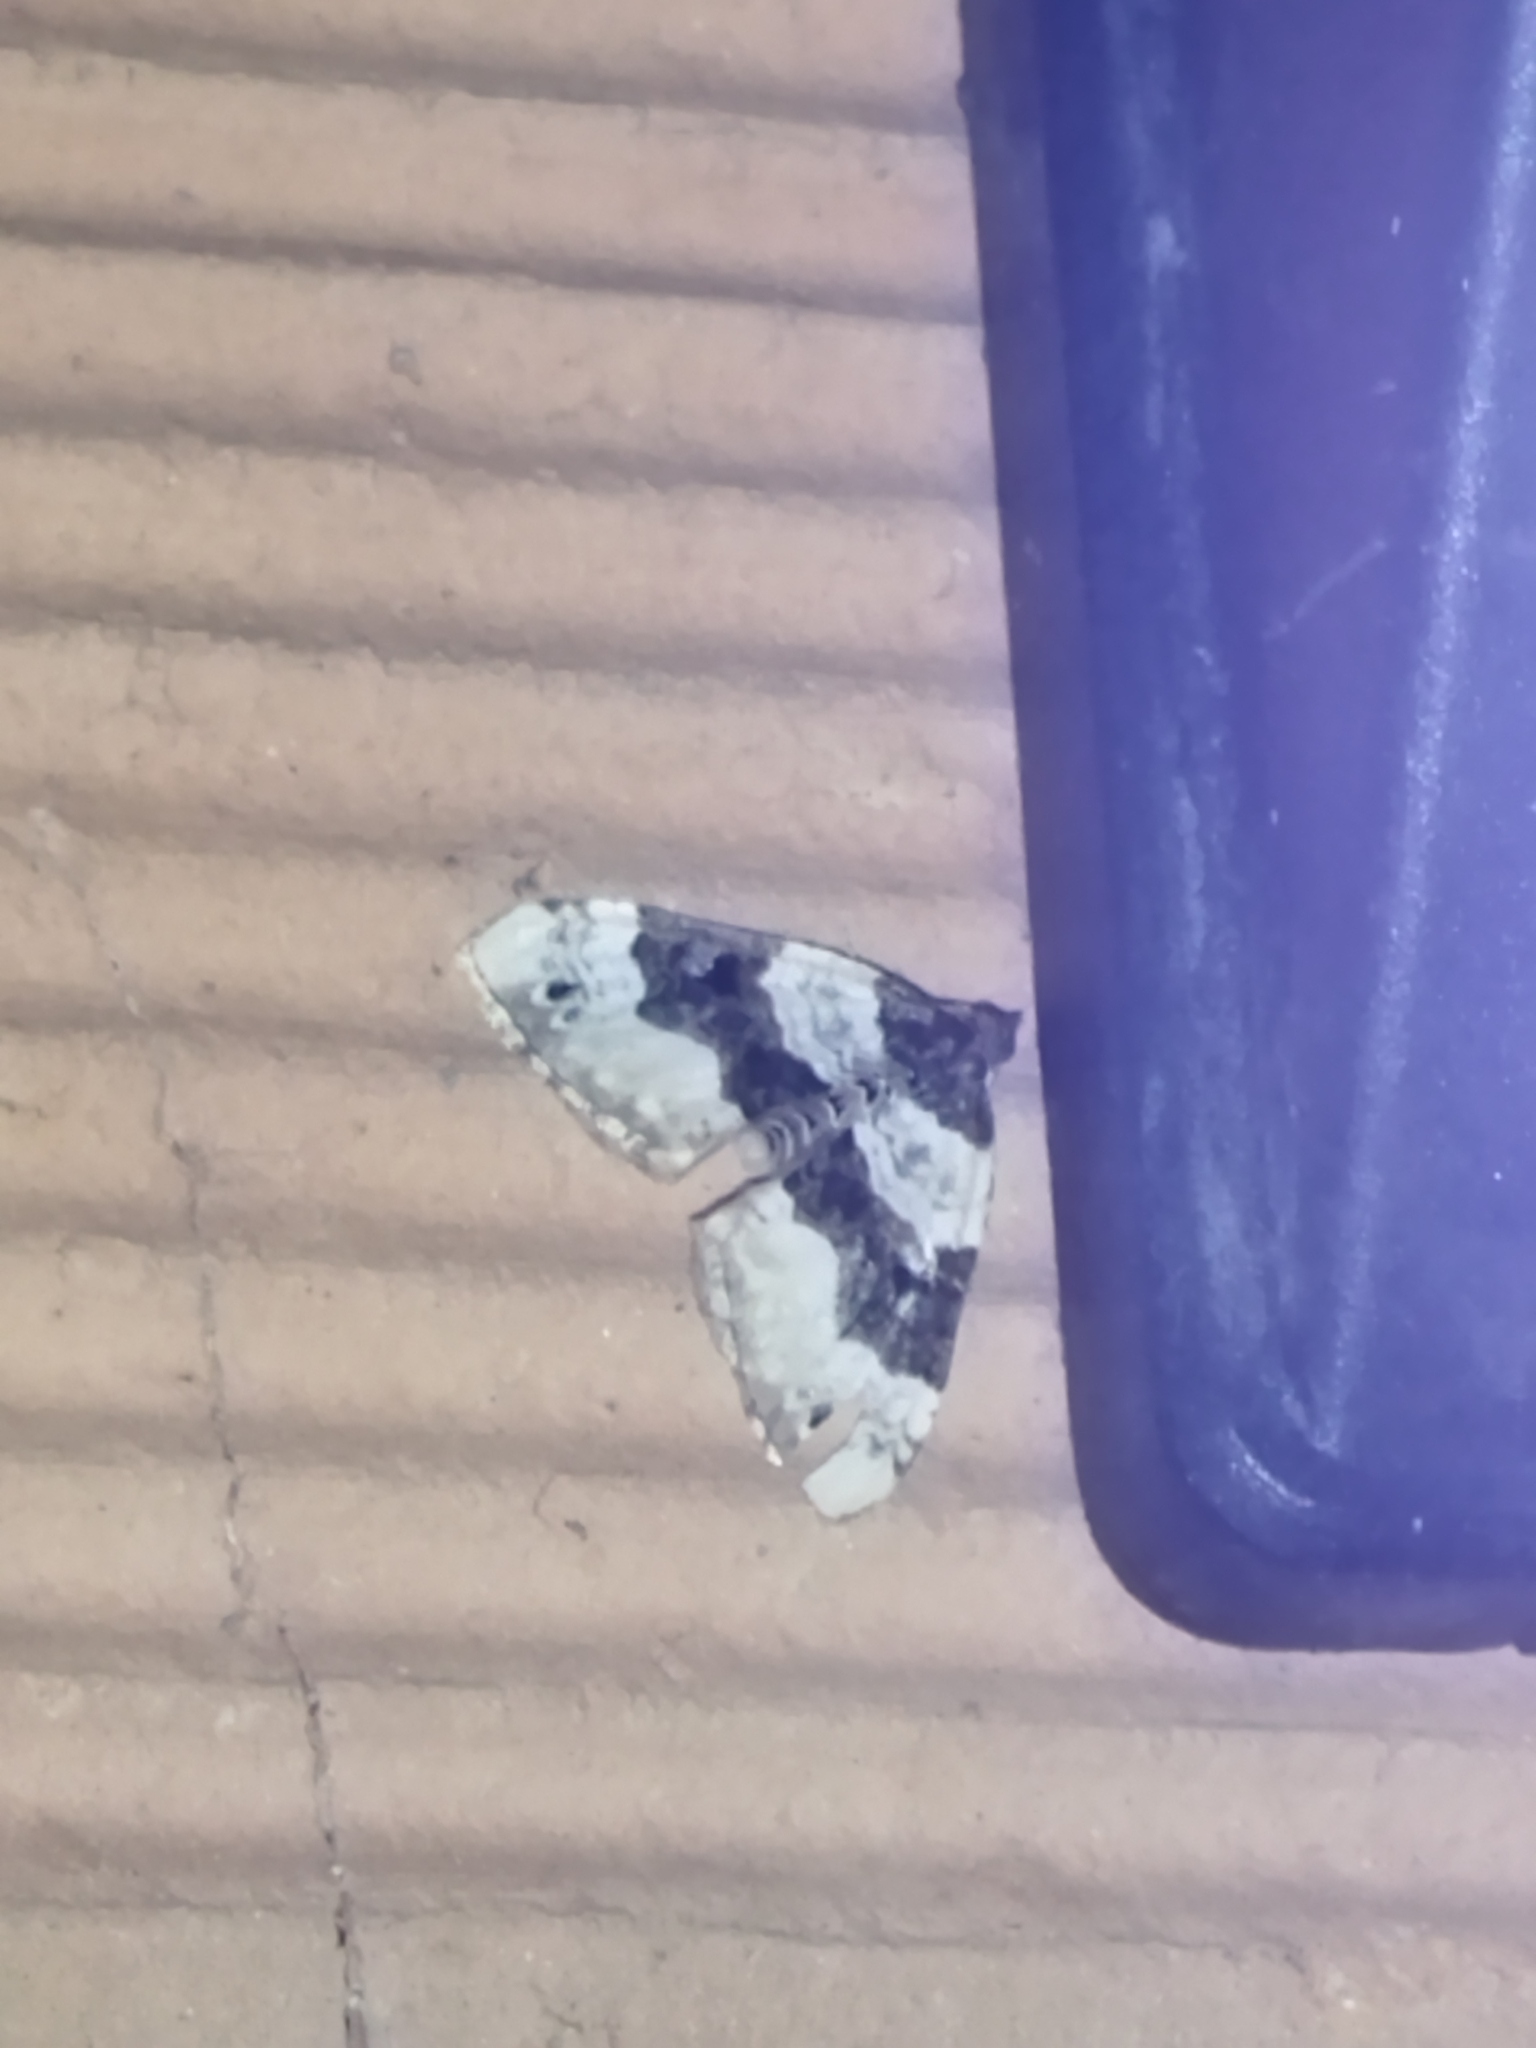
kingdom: Animalia
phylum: Arthropoda
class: Insecta
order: Lepidoptera
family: Geometridae
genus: Cosmorhoe
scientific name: Cosmorhoe ocellata
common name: Purple bar
